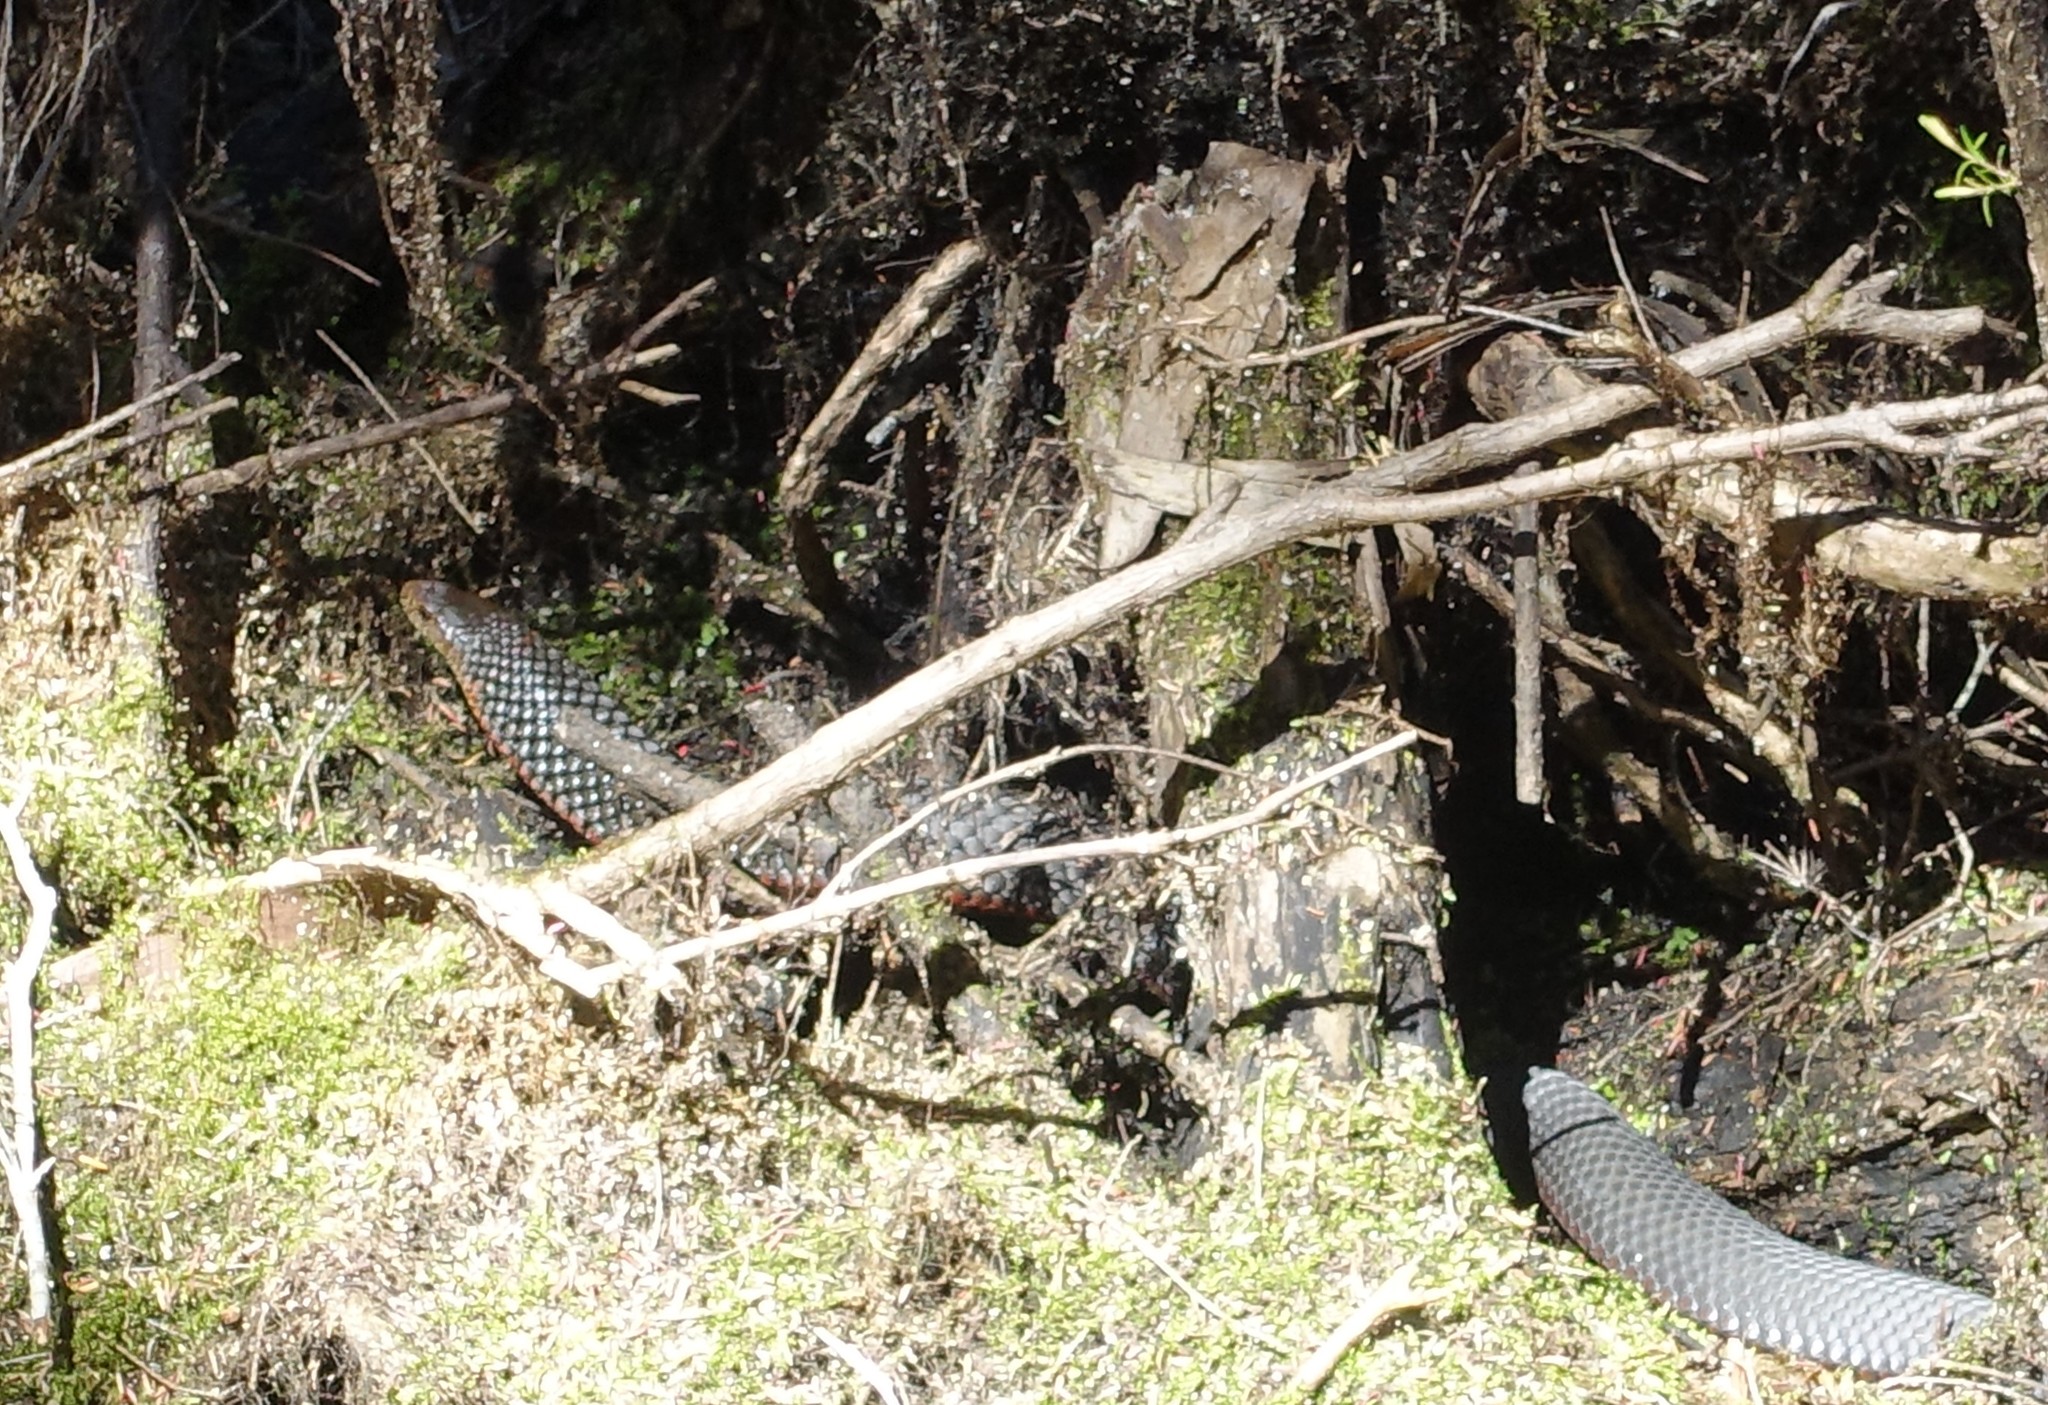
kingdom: Animalia
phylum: Chordata
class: Squamata
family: Elapidae
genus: Austrelaps
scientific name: Austrelaps superbus
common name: Copperhead snake
